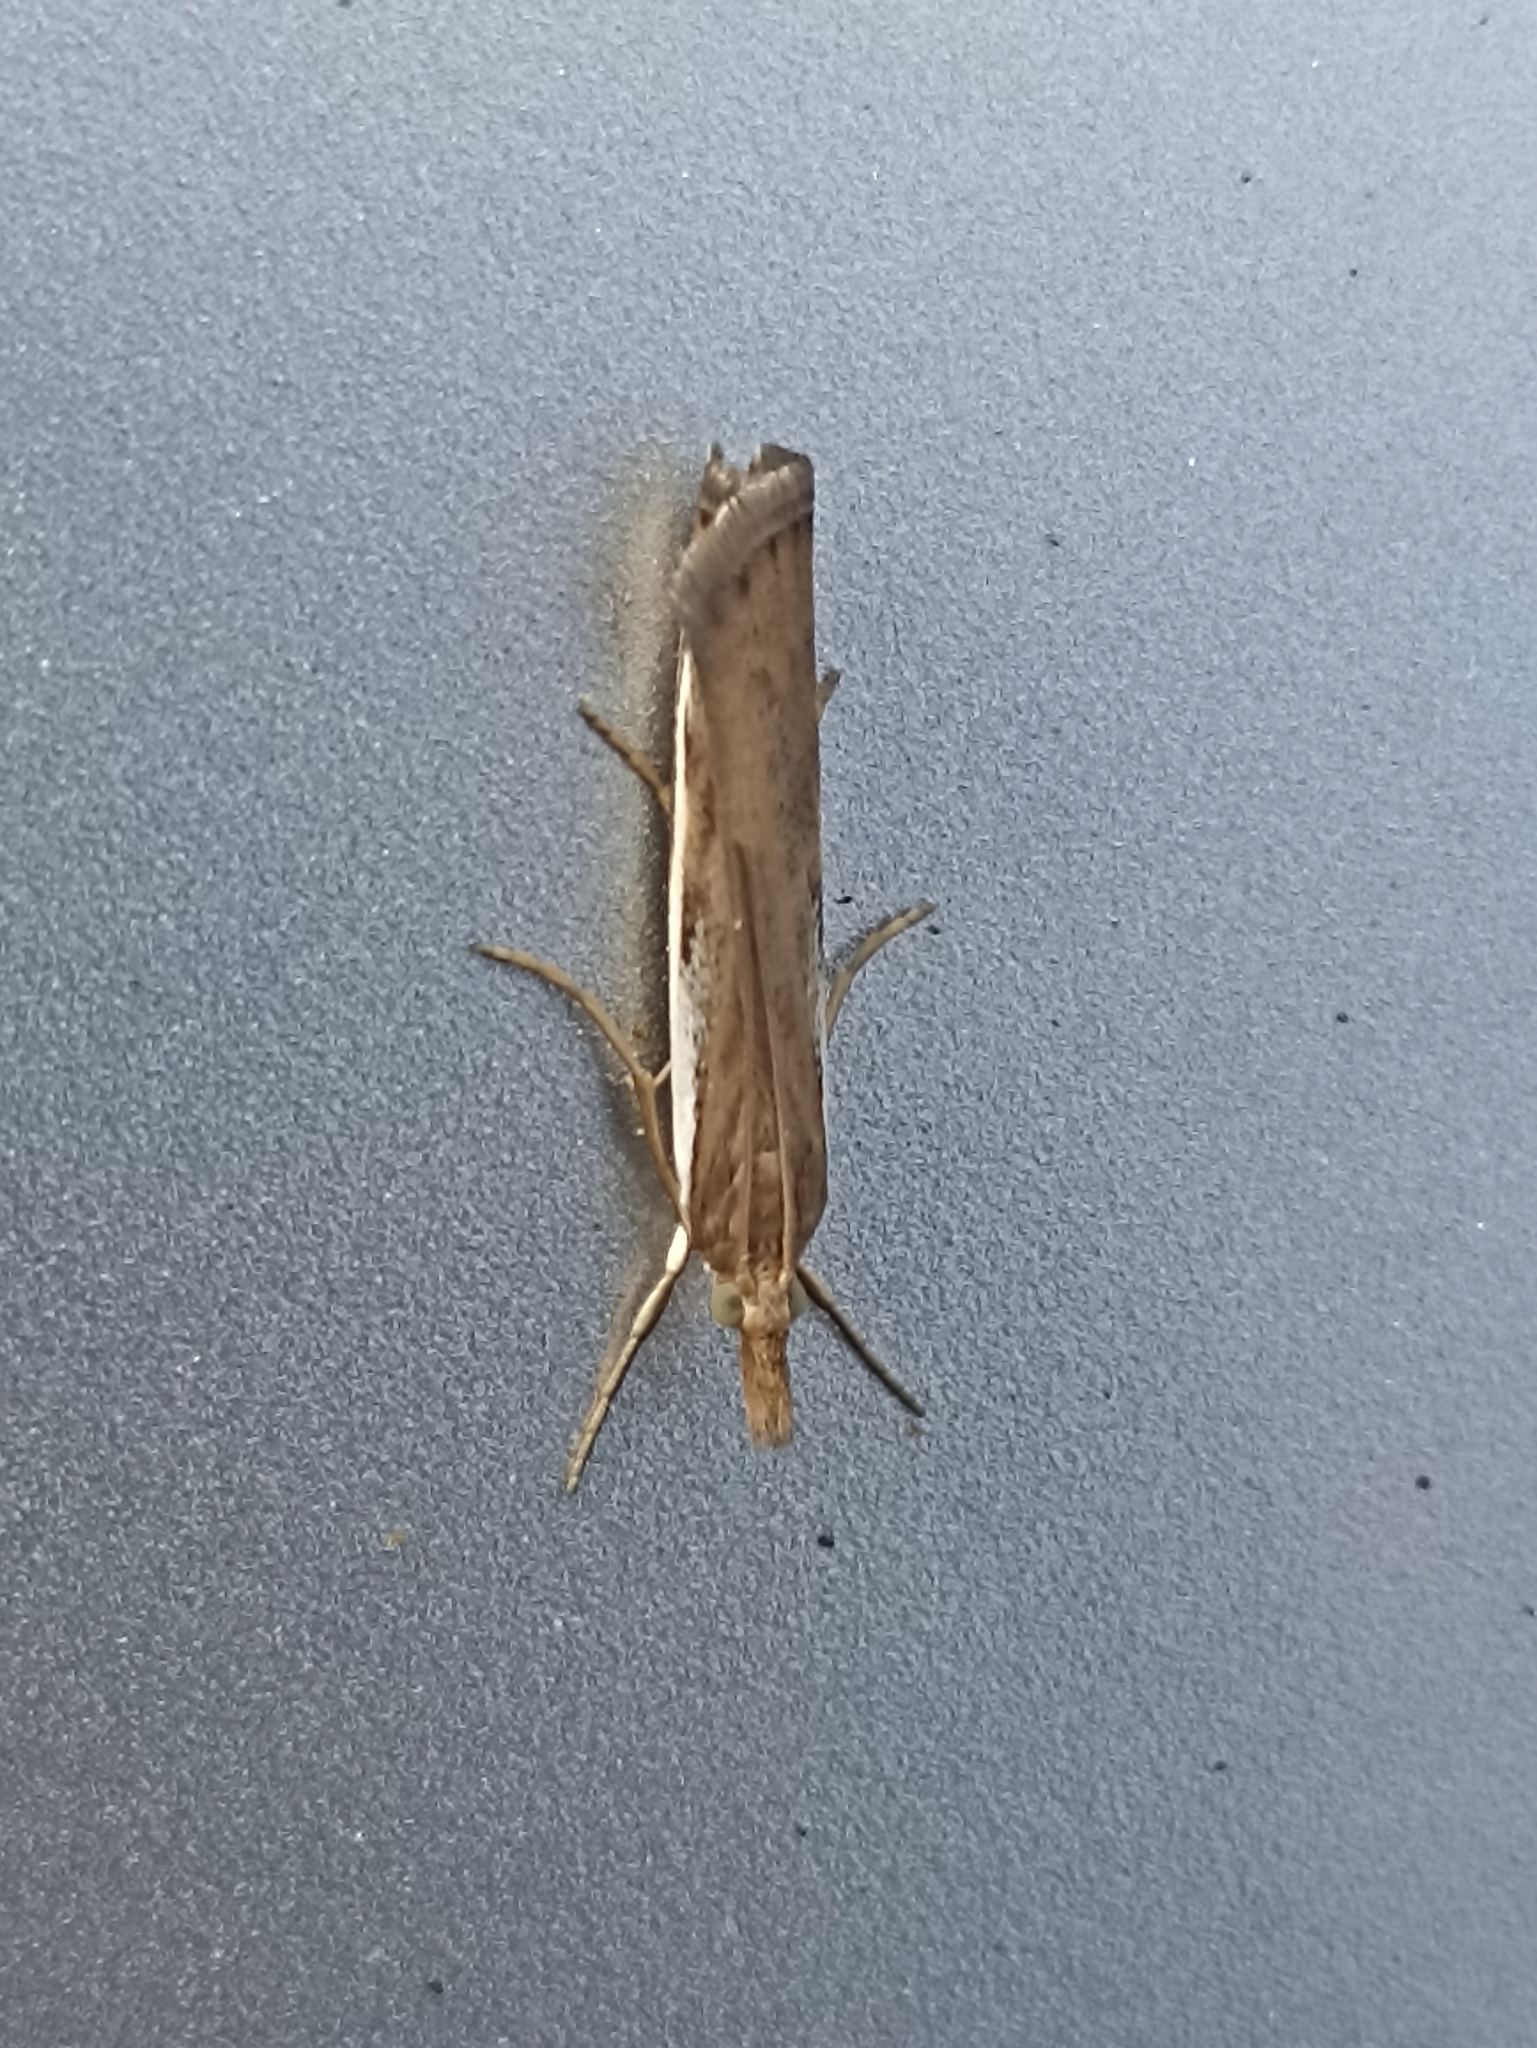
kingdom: Animalia
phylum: Arthropoda
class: Insecta
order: Lepidoptera
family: Crambidae
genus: Orocrambus
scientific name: Orocrambus flexuosellus
